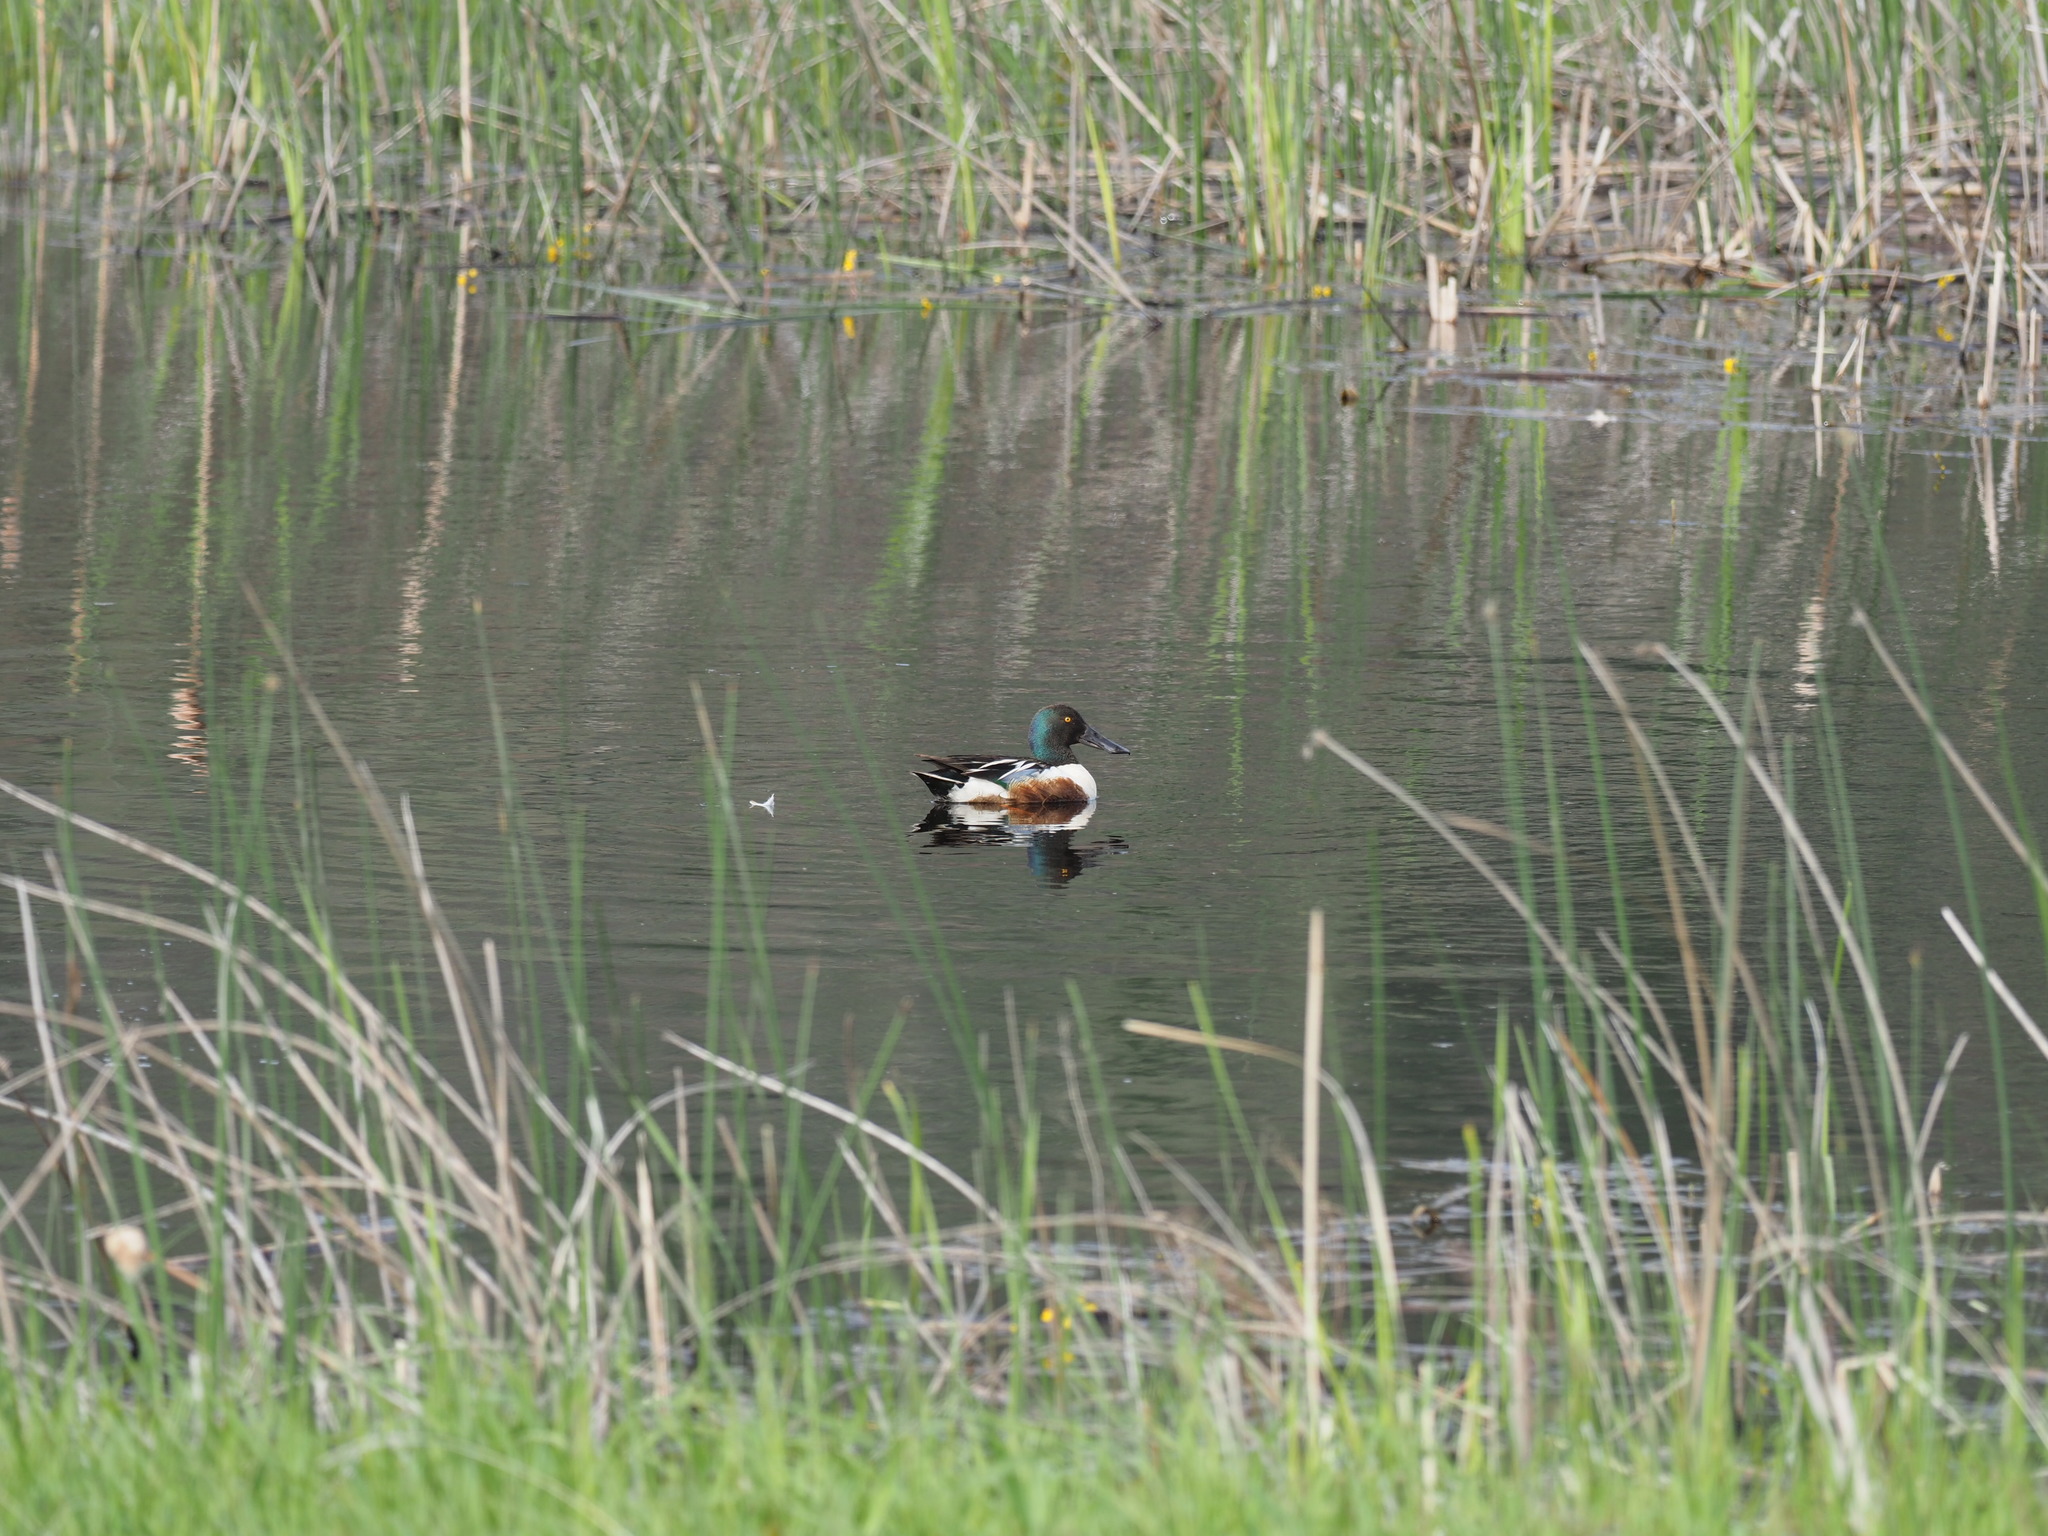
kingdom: Animalia
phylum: Chordata
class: Aves
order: Anseriformes
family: Anatidae
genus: Spatula
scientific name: Spatula clypeata
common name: Northern shoveler
